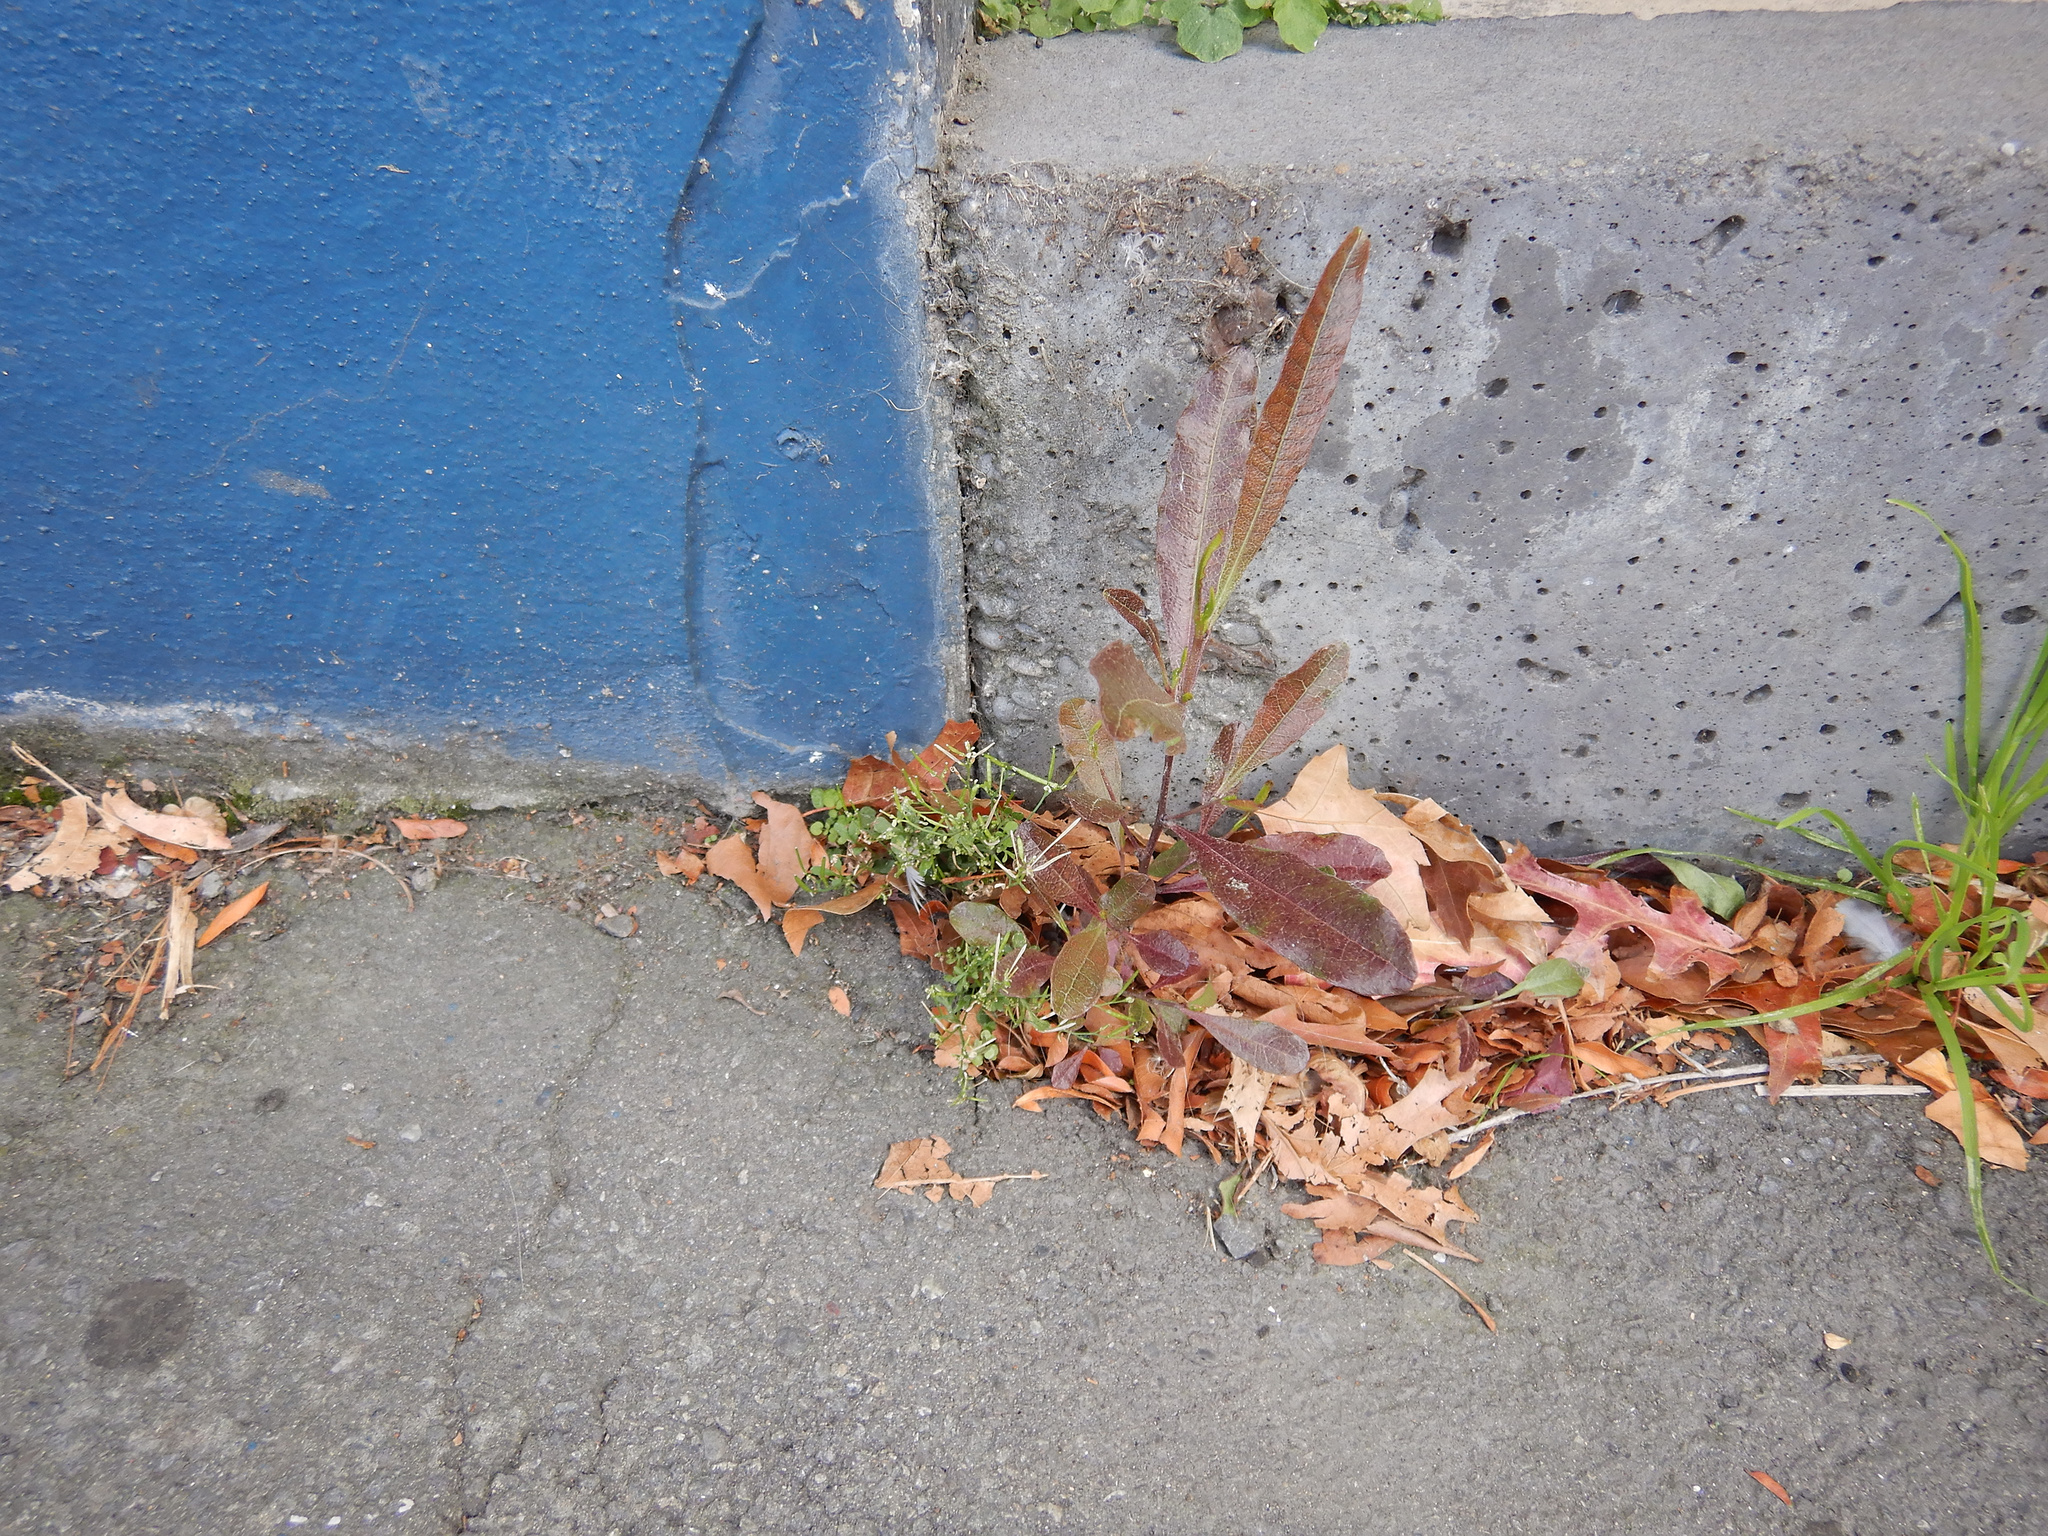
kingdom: Plantae
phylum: Tracheophyta
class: Magnoliopsida
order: Sapindales
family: Sapindaceae
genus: Dodonaea
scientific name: Dodonaea viscosa
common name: Hopbush
